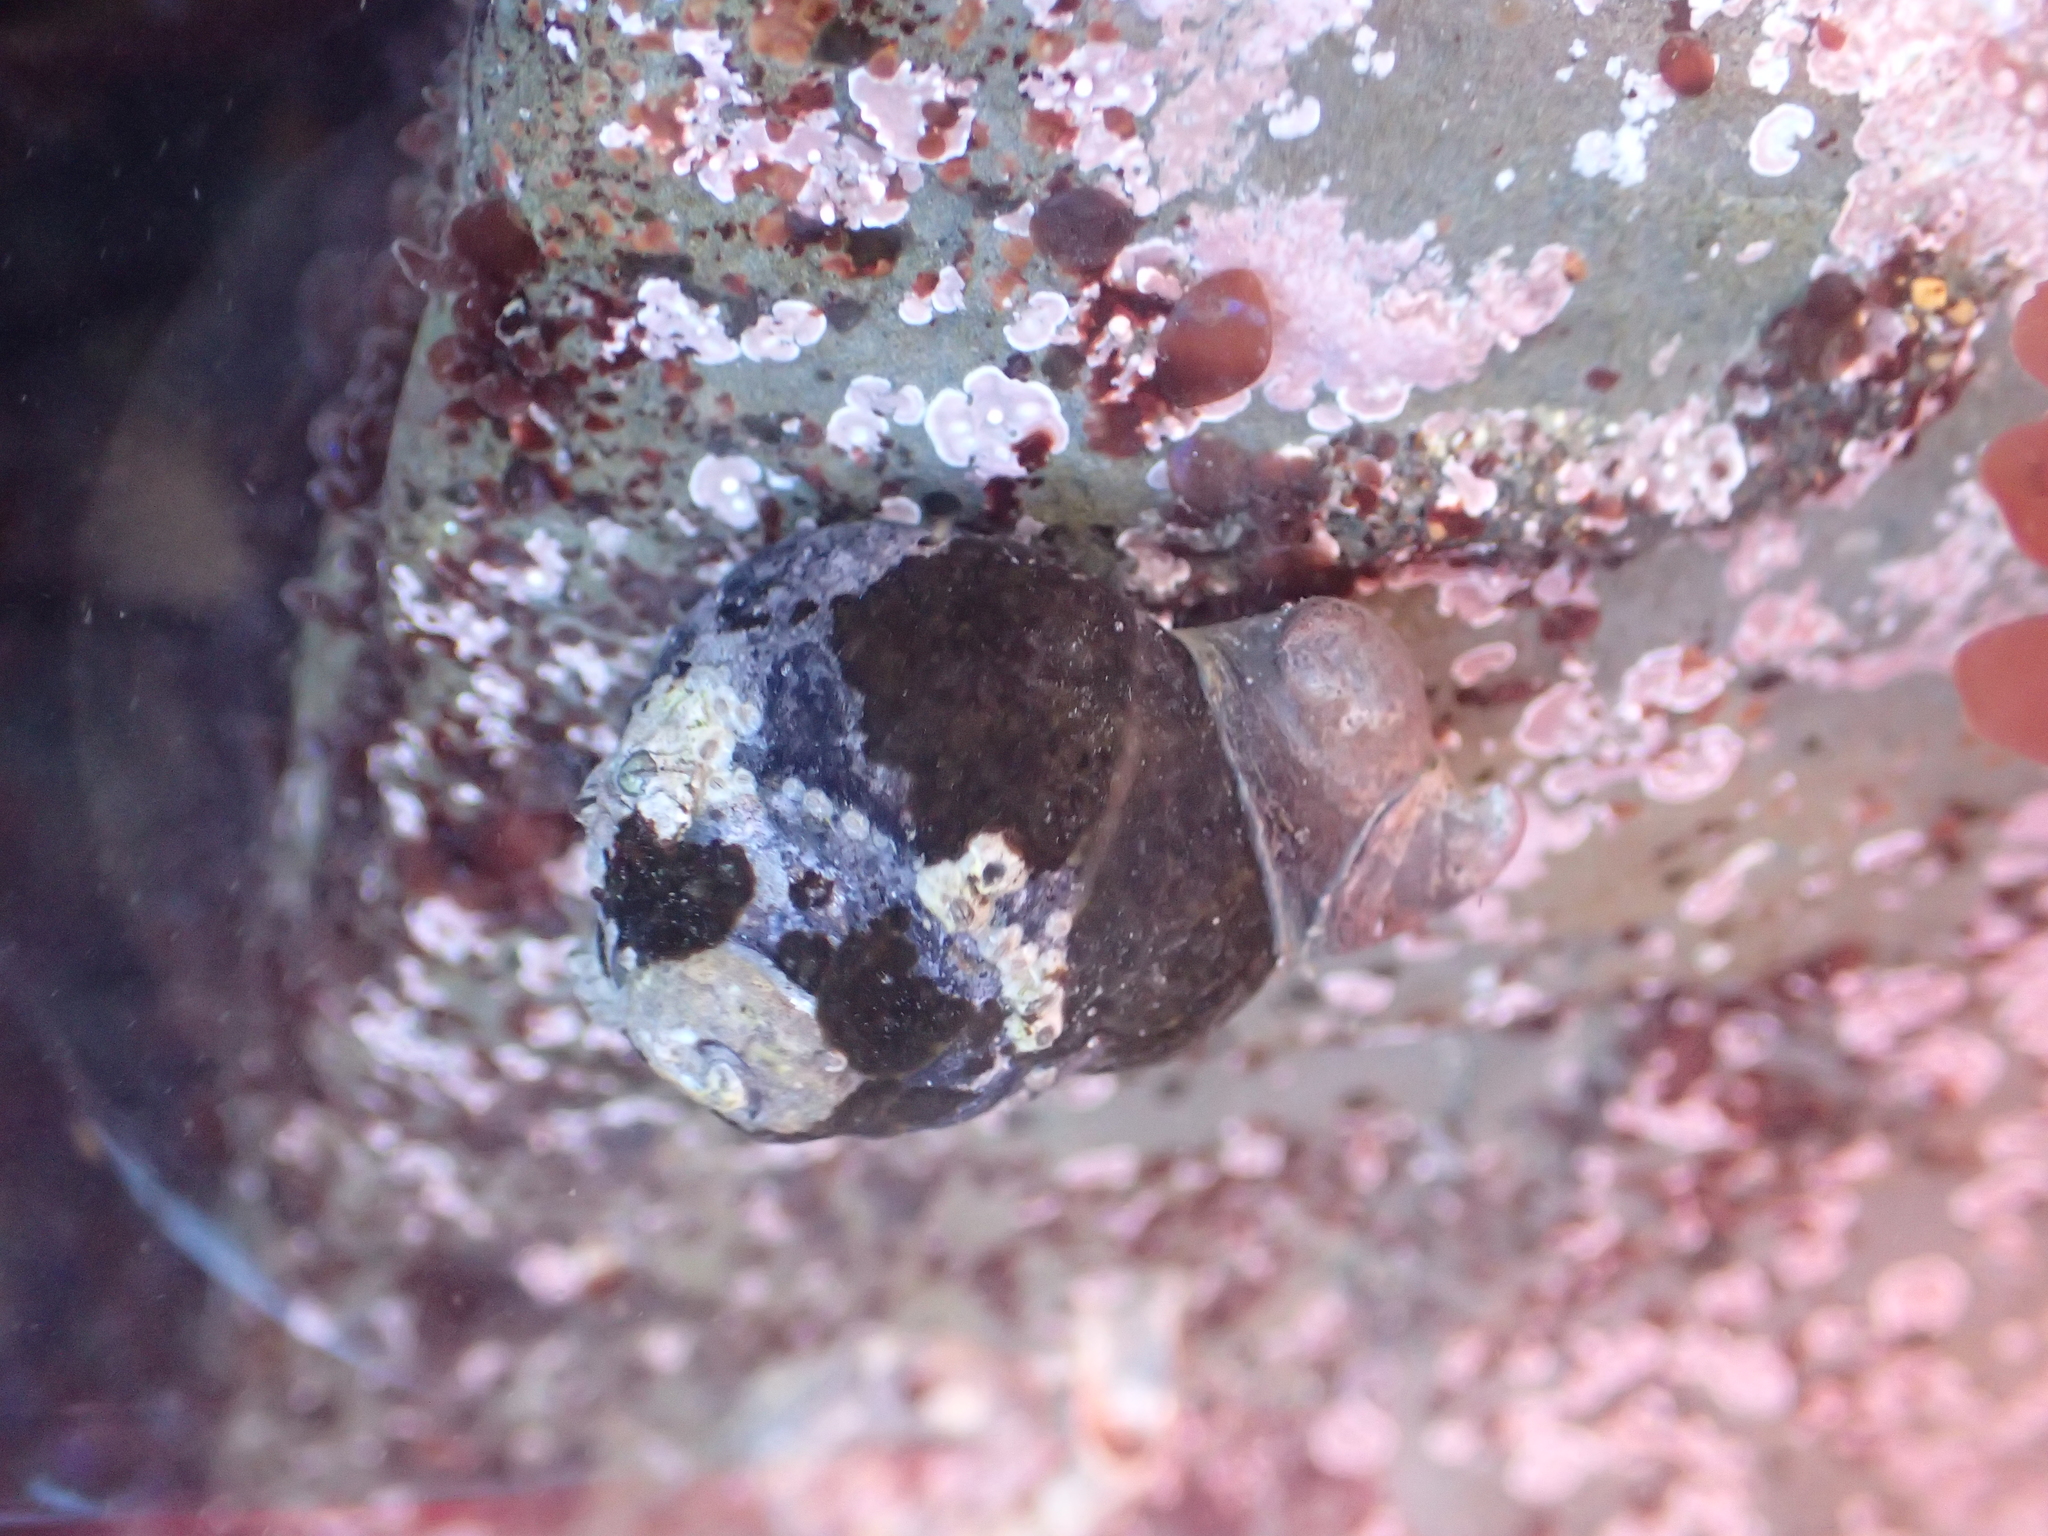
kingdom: Animalia
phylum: Mollusca
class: Gastropoda
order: Littorinimorpha
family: Calyptraeidae
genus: Crepidula
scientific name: Crepidula adunca
